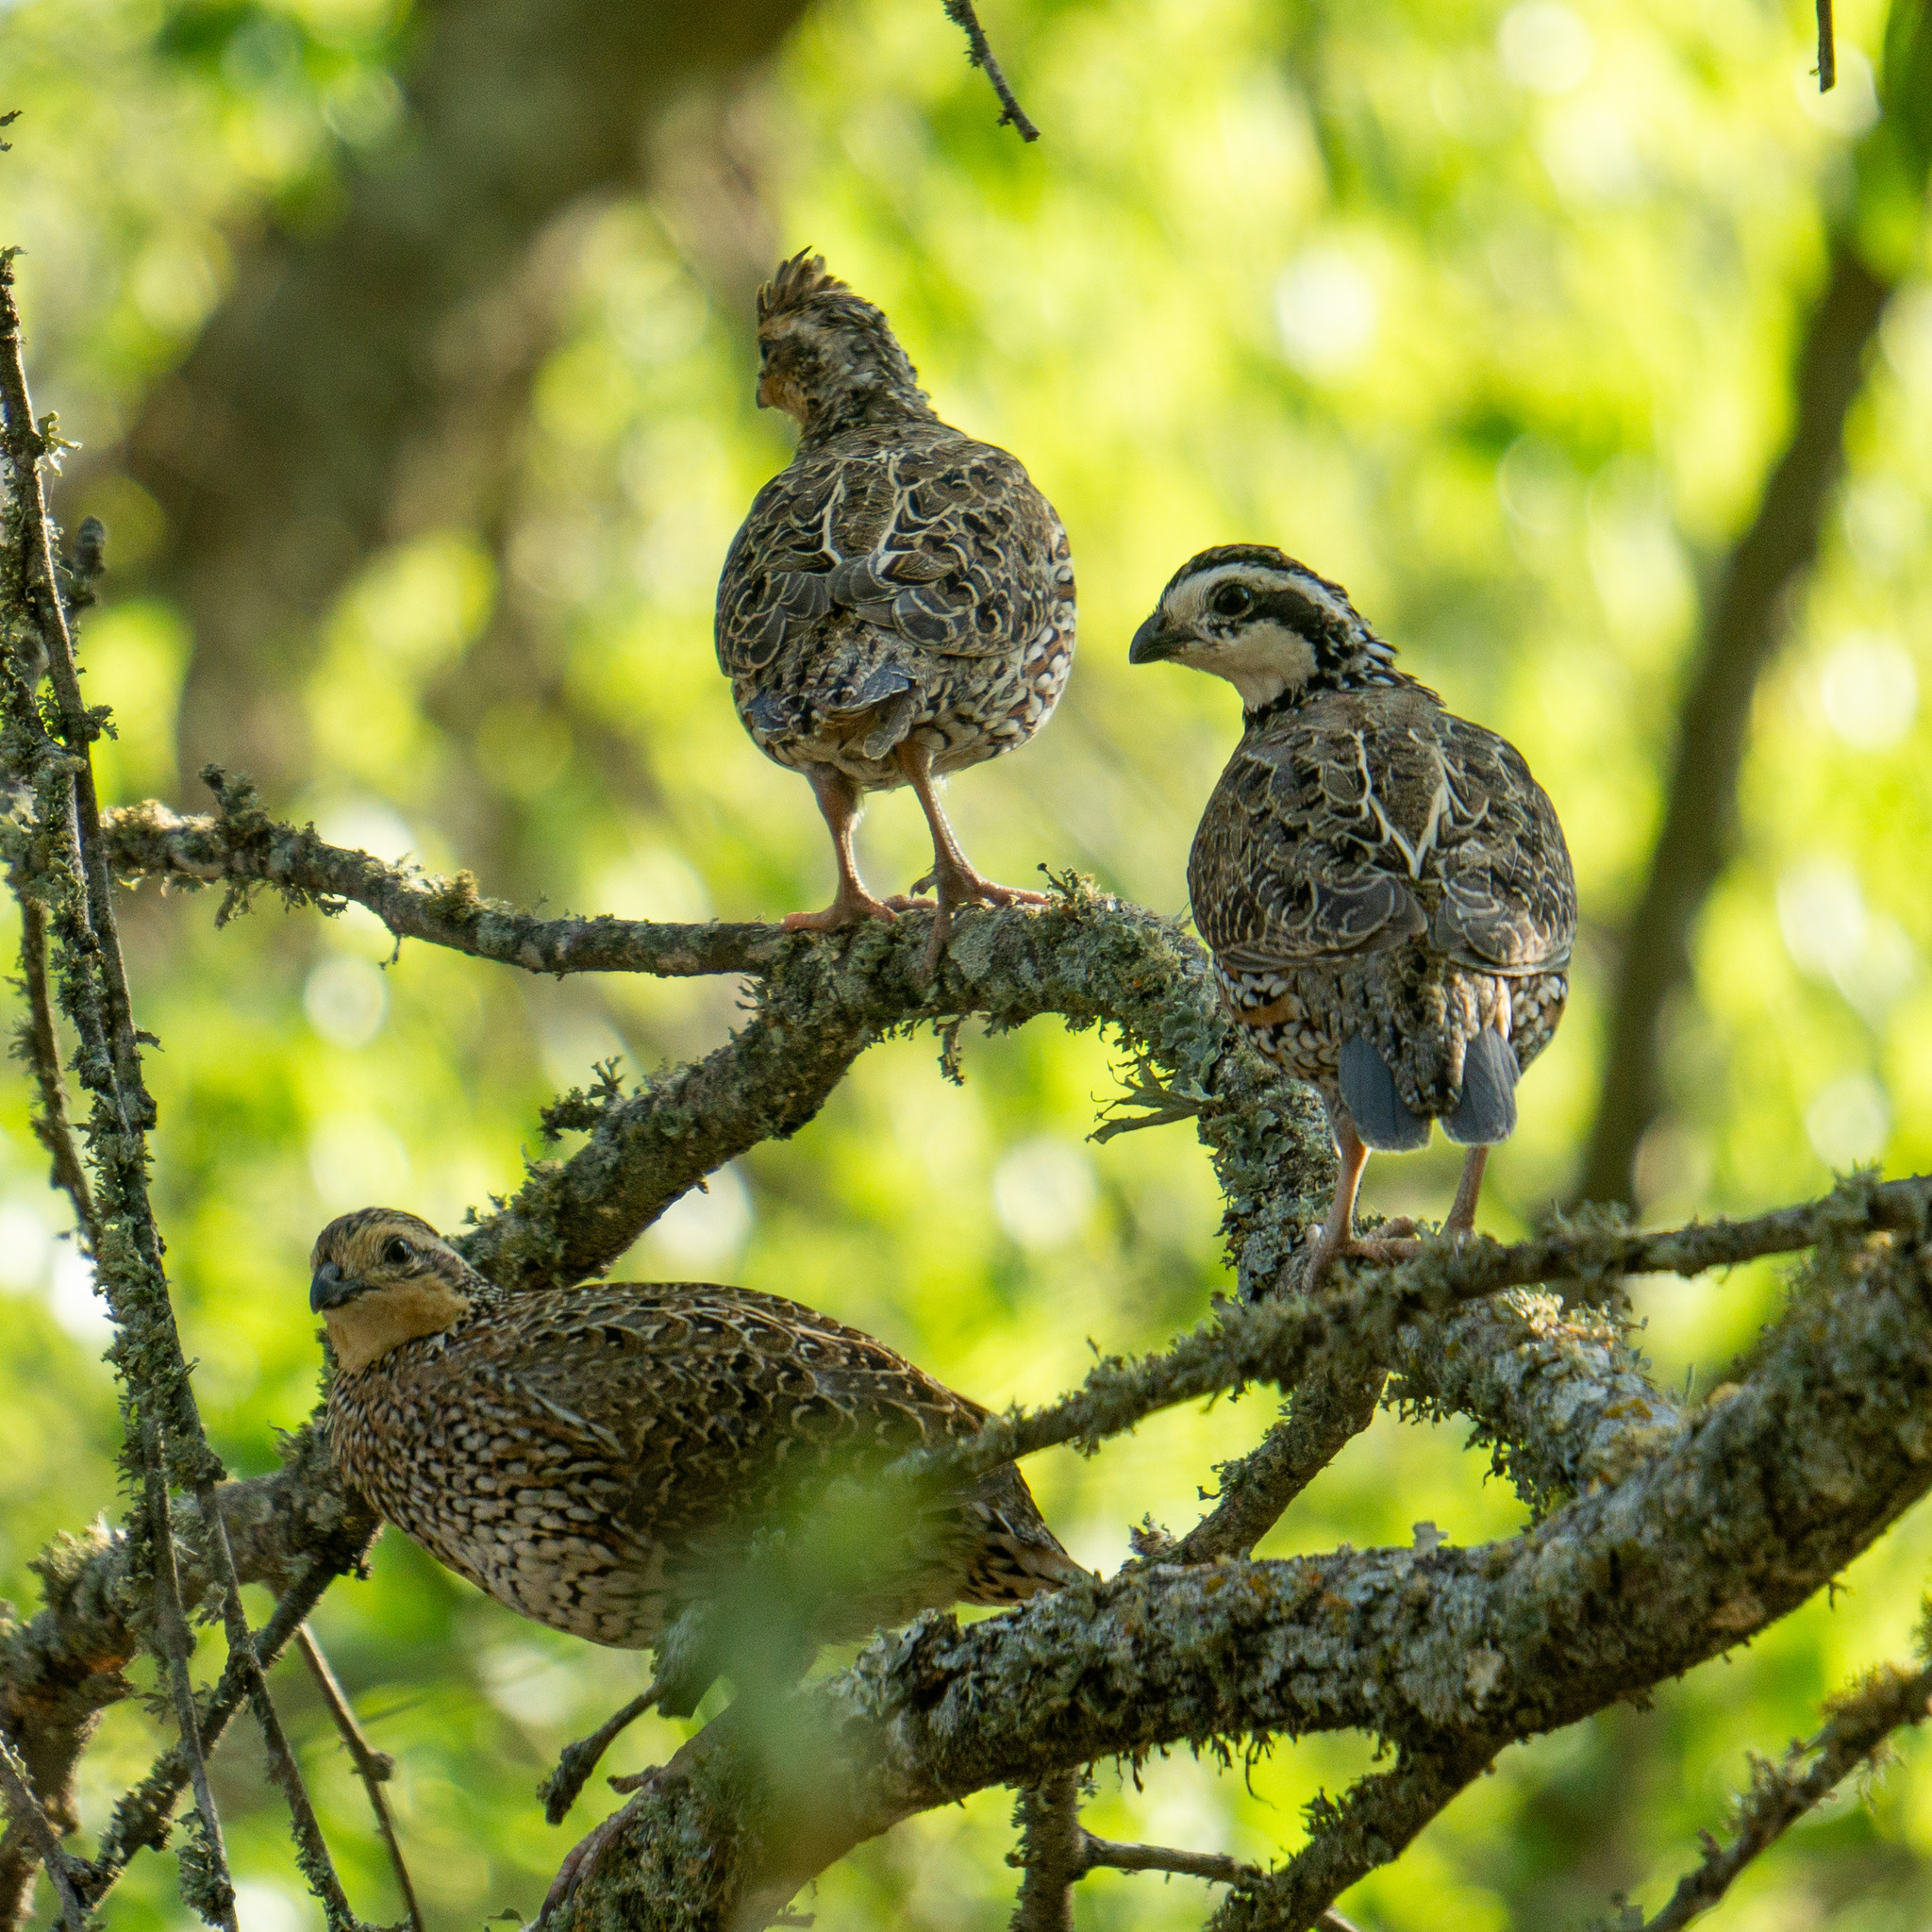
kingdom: Animalia
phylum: Chordata
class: Aves
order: Galliformes
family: Odontophoridae
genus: Colinus
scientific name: Colinus virginianus
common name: Northern bobwhite
